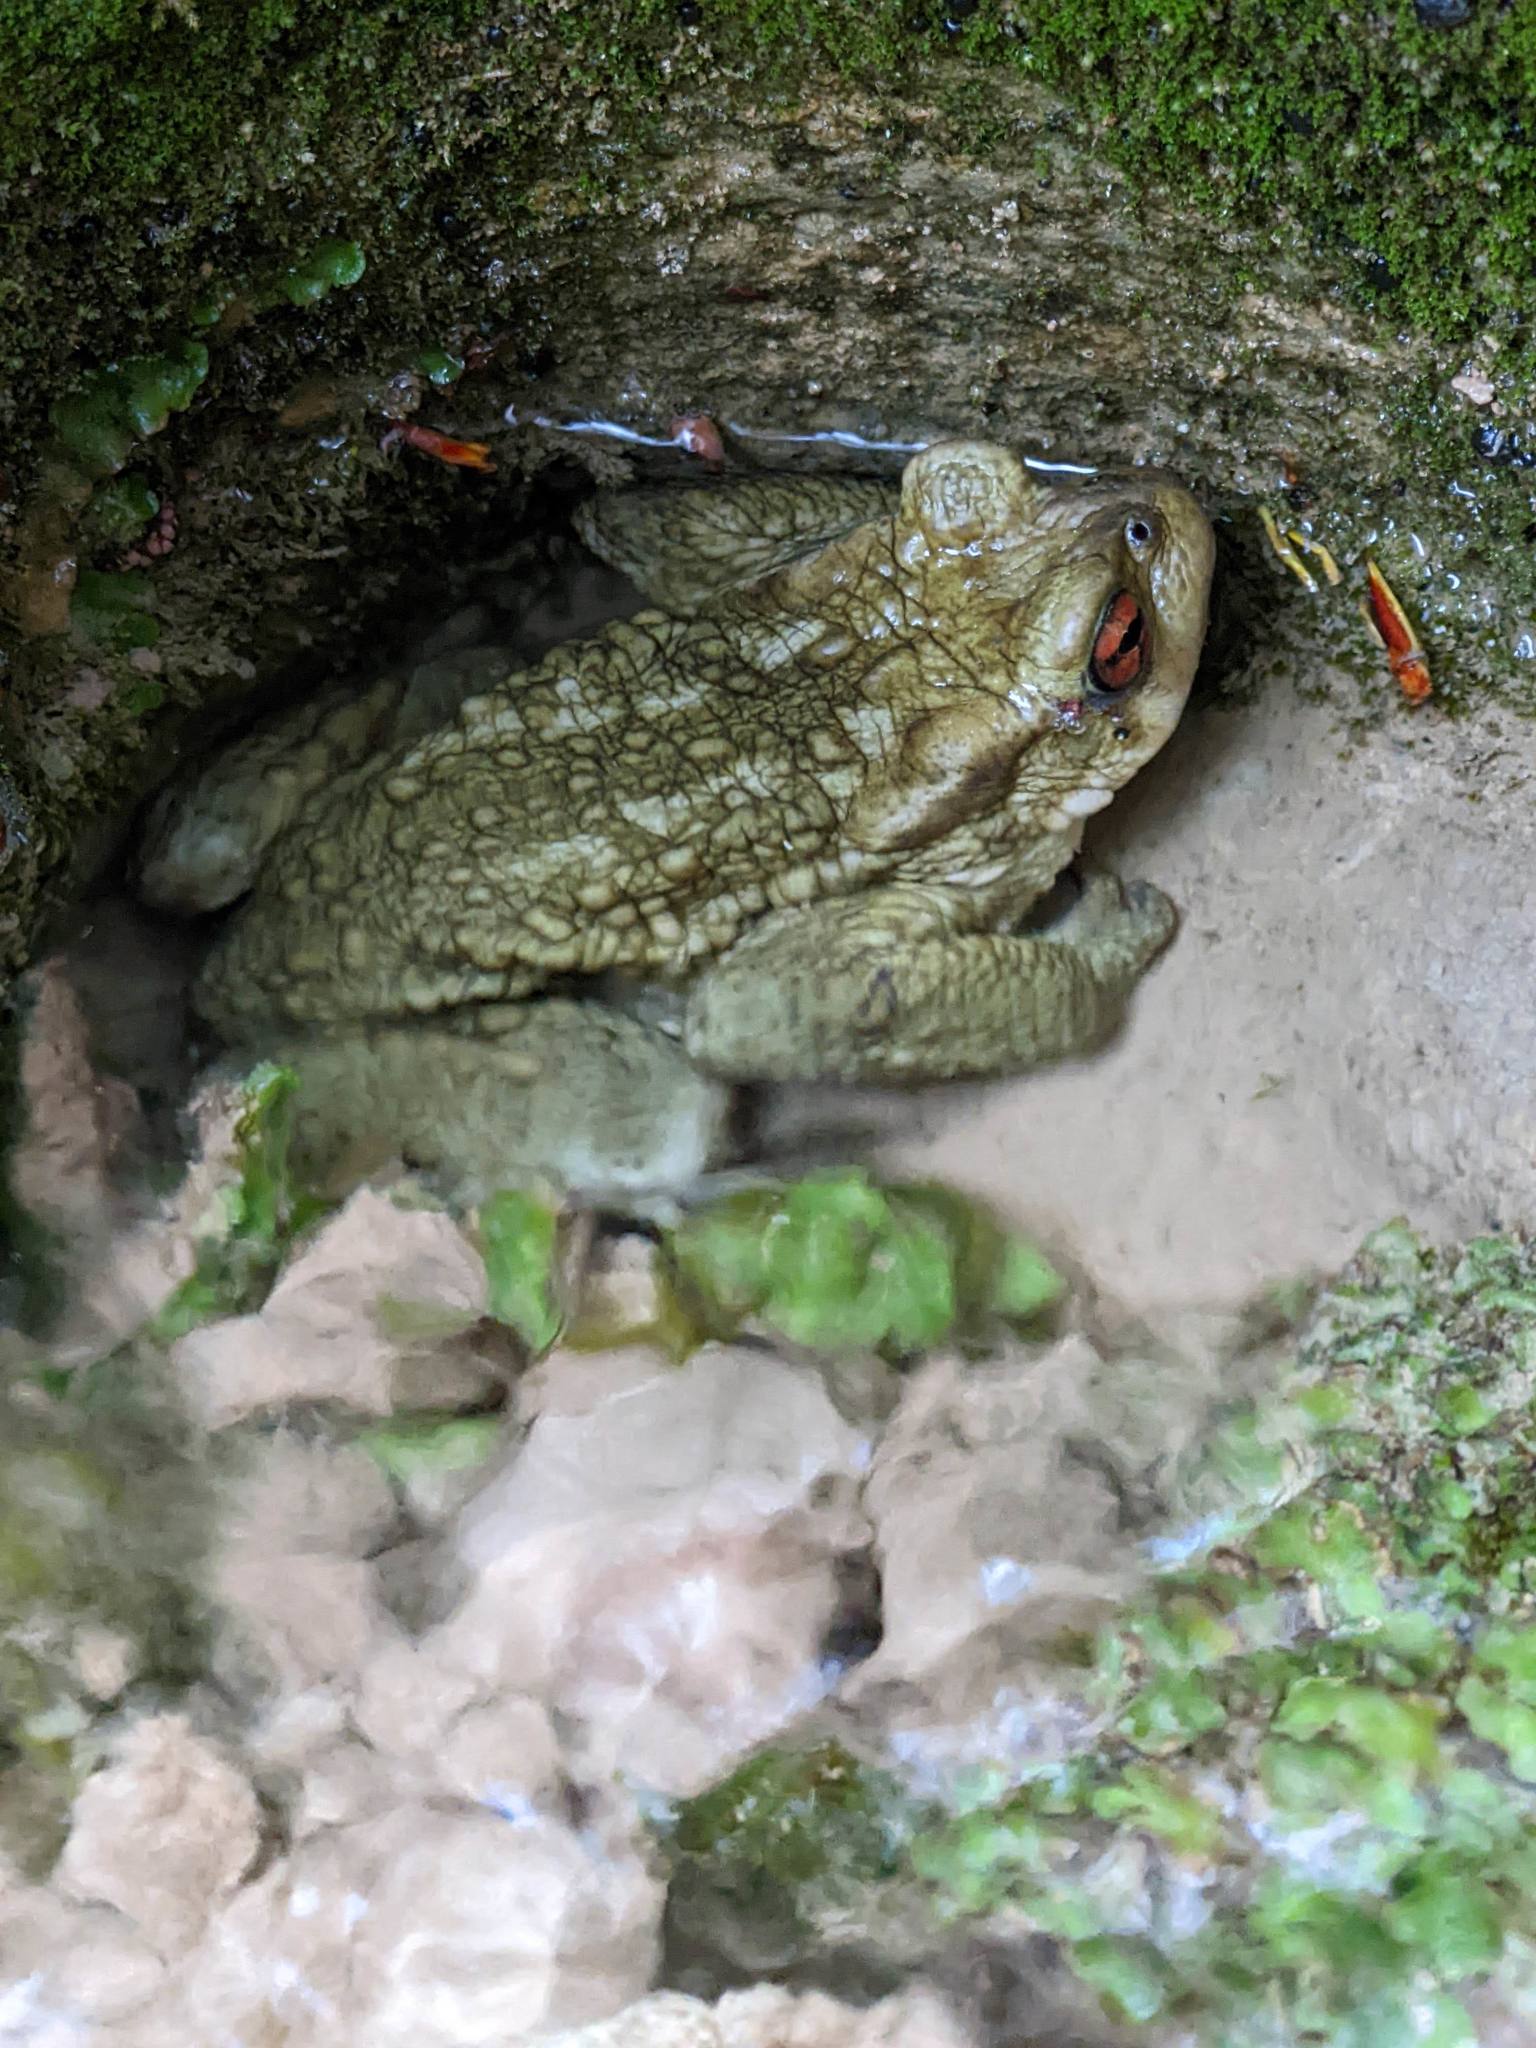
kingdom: Animalia
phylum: Chordata
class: Amphibia
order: Anura
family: Bufonidae
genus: Bufo
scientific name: Bufo spinosus
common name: Western common toad
